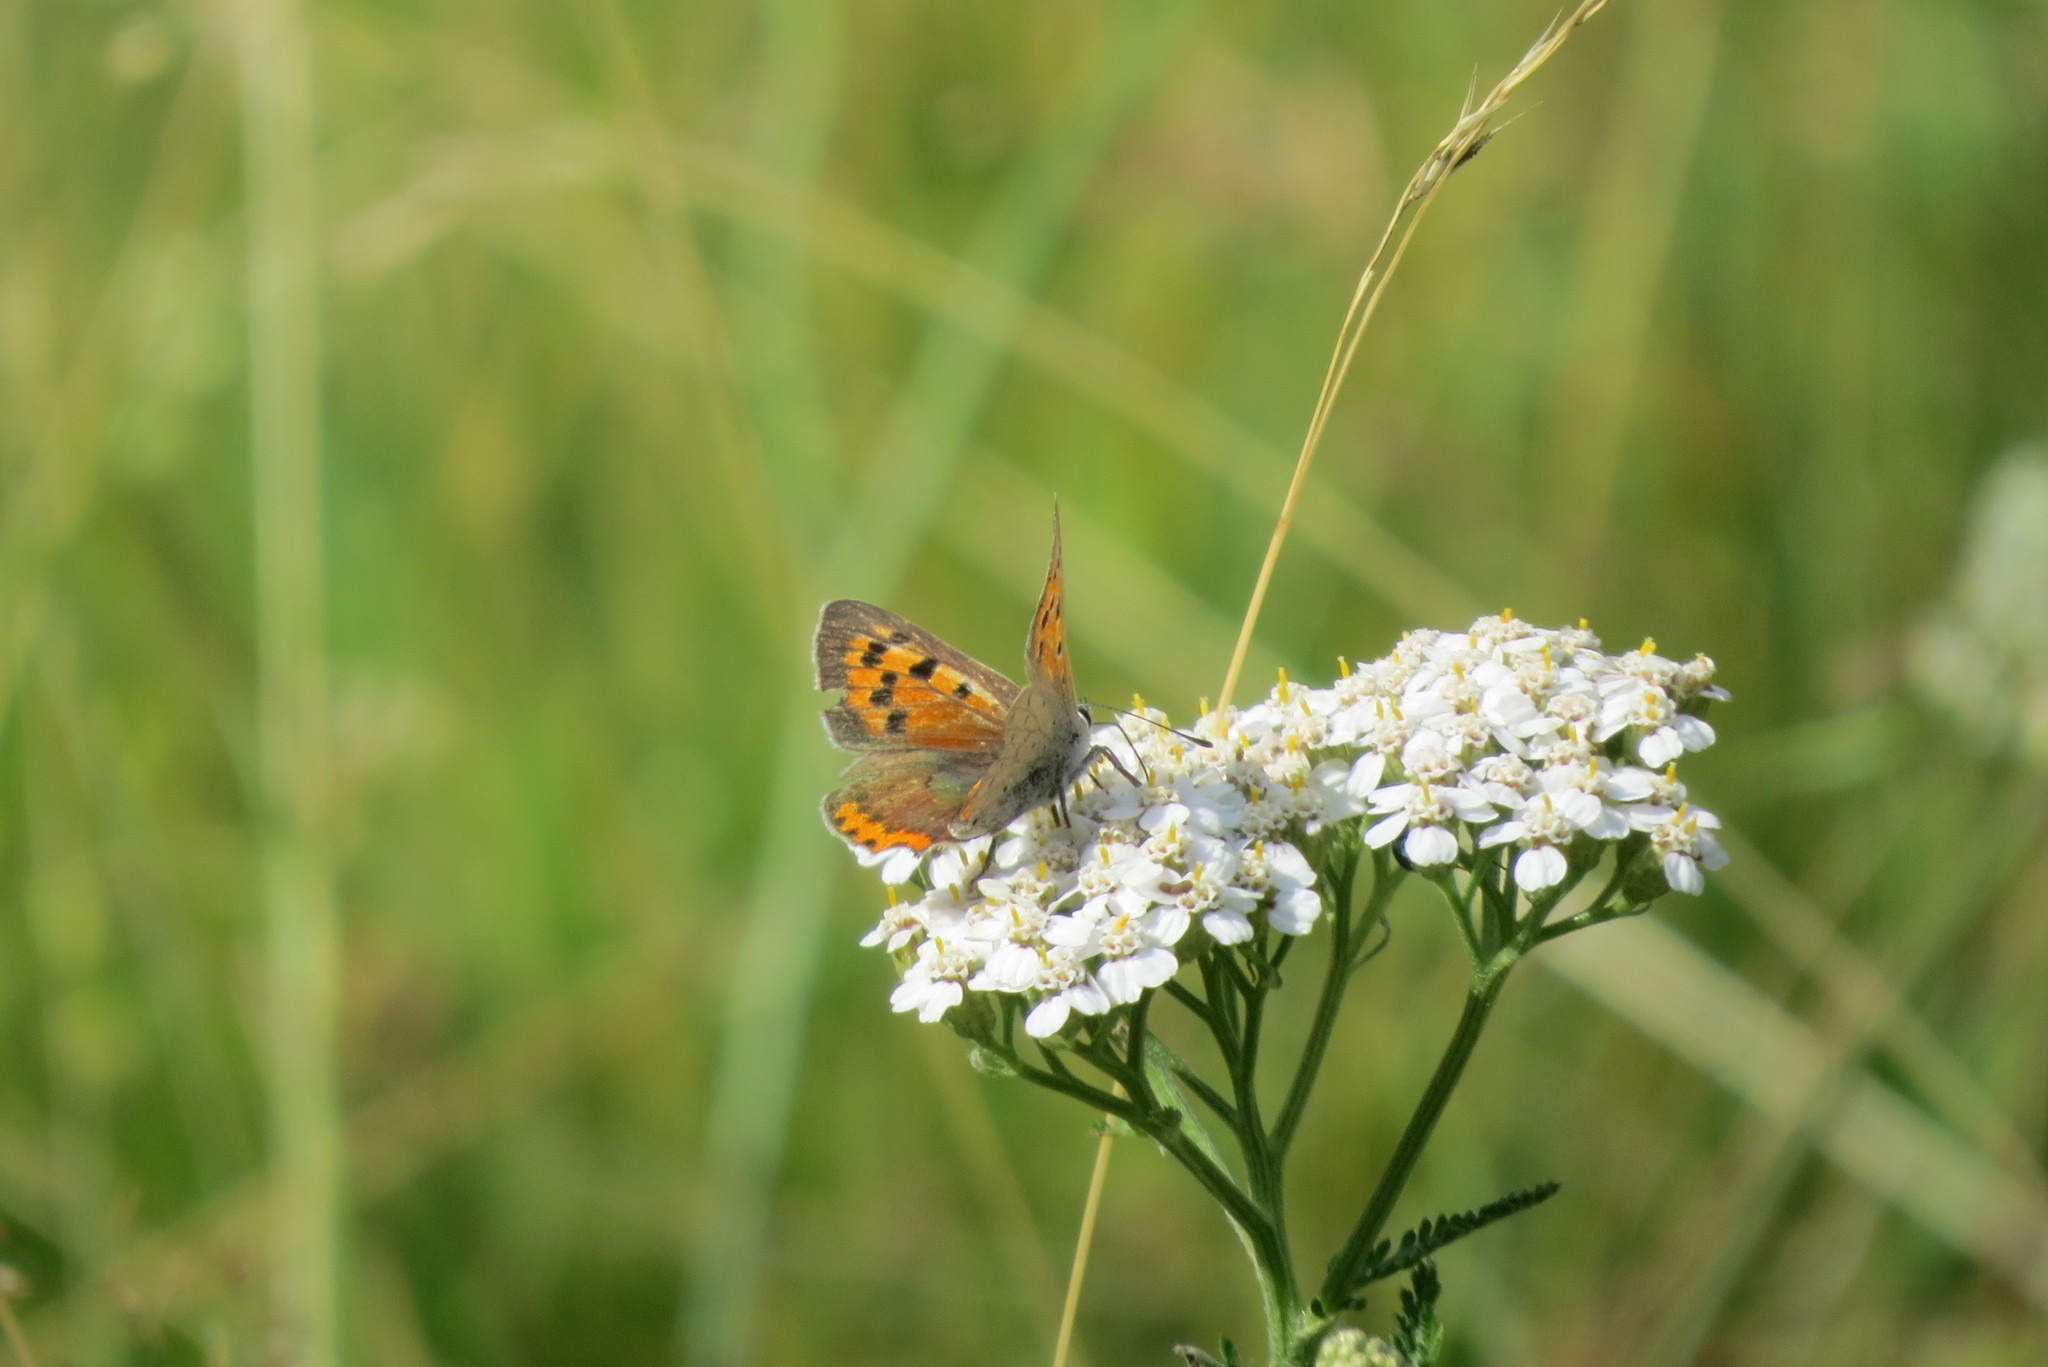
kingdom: Animalia
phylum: Arthropoda
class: Insecta
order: Lepidoptera
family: Lycaenidae
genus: Lycaena
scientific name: Lycaena phlaeas
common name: Small copper
